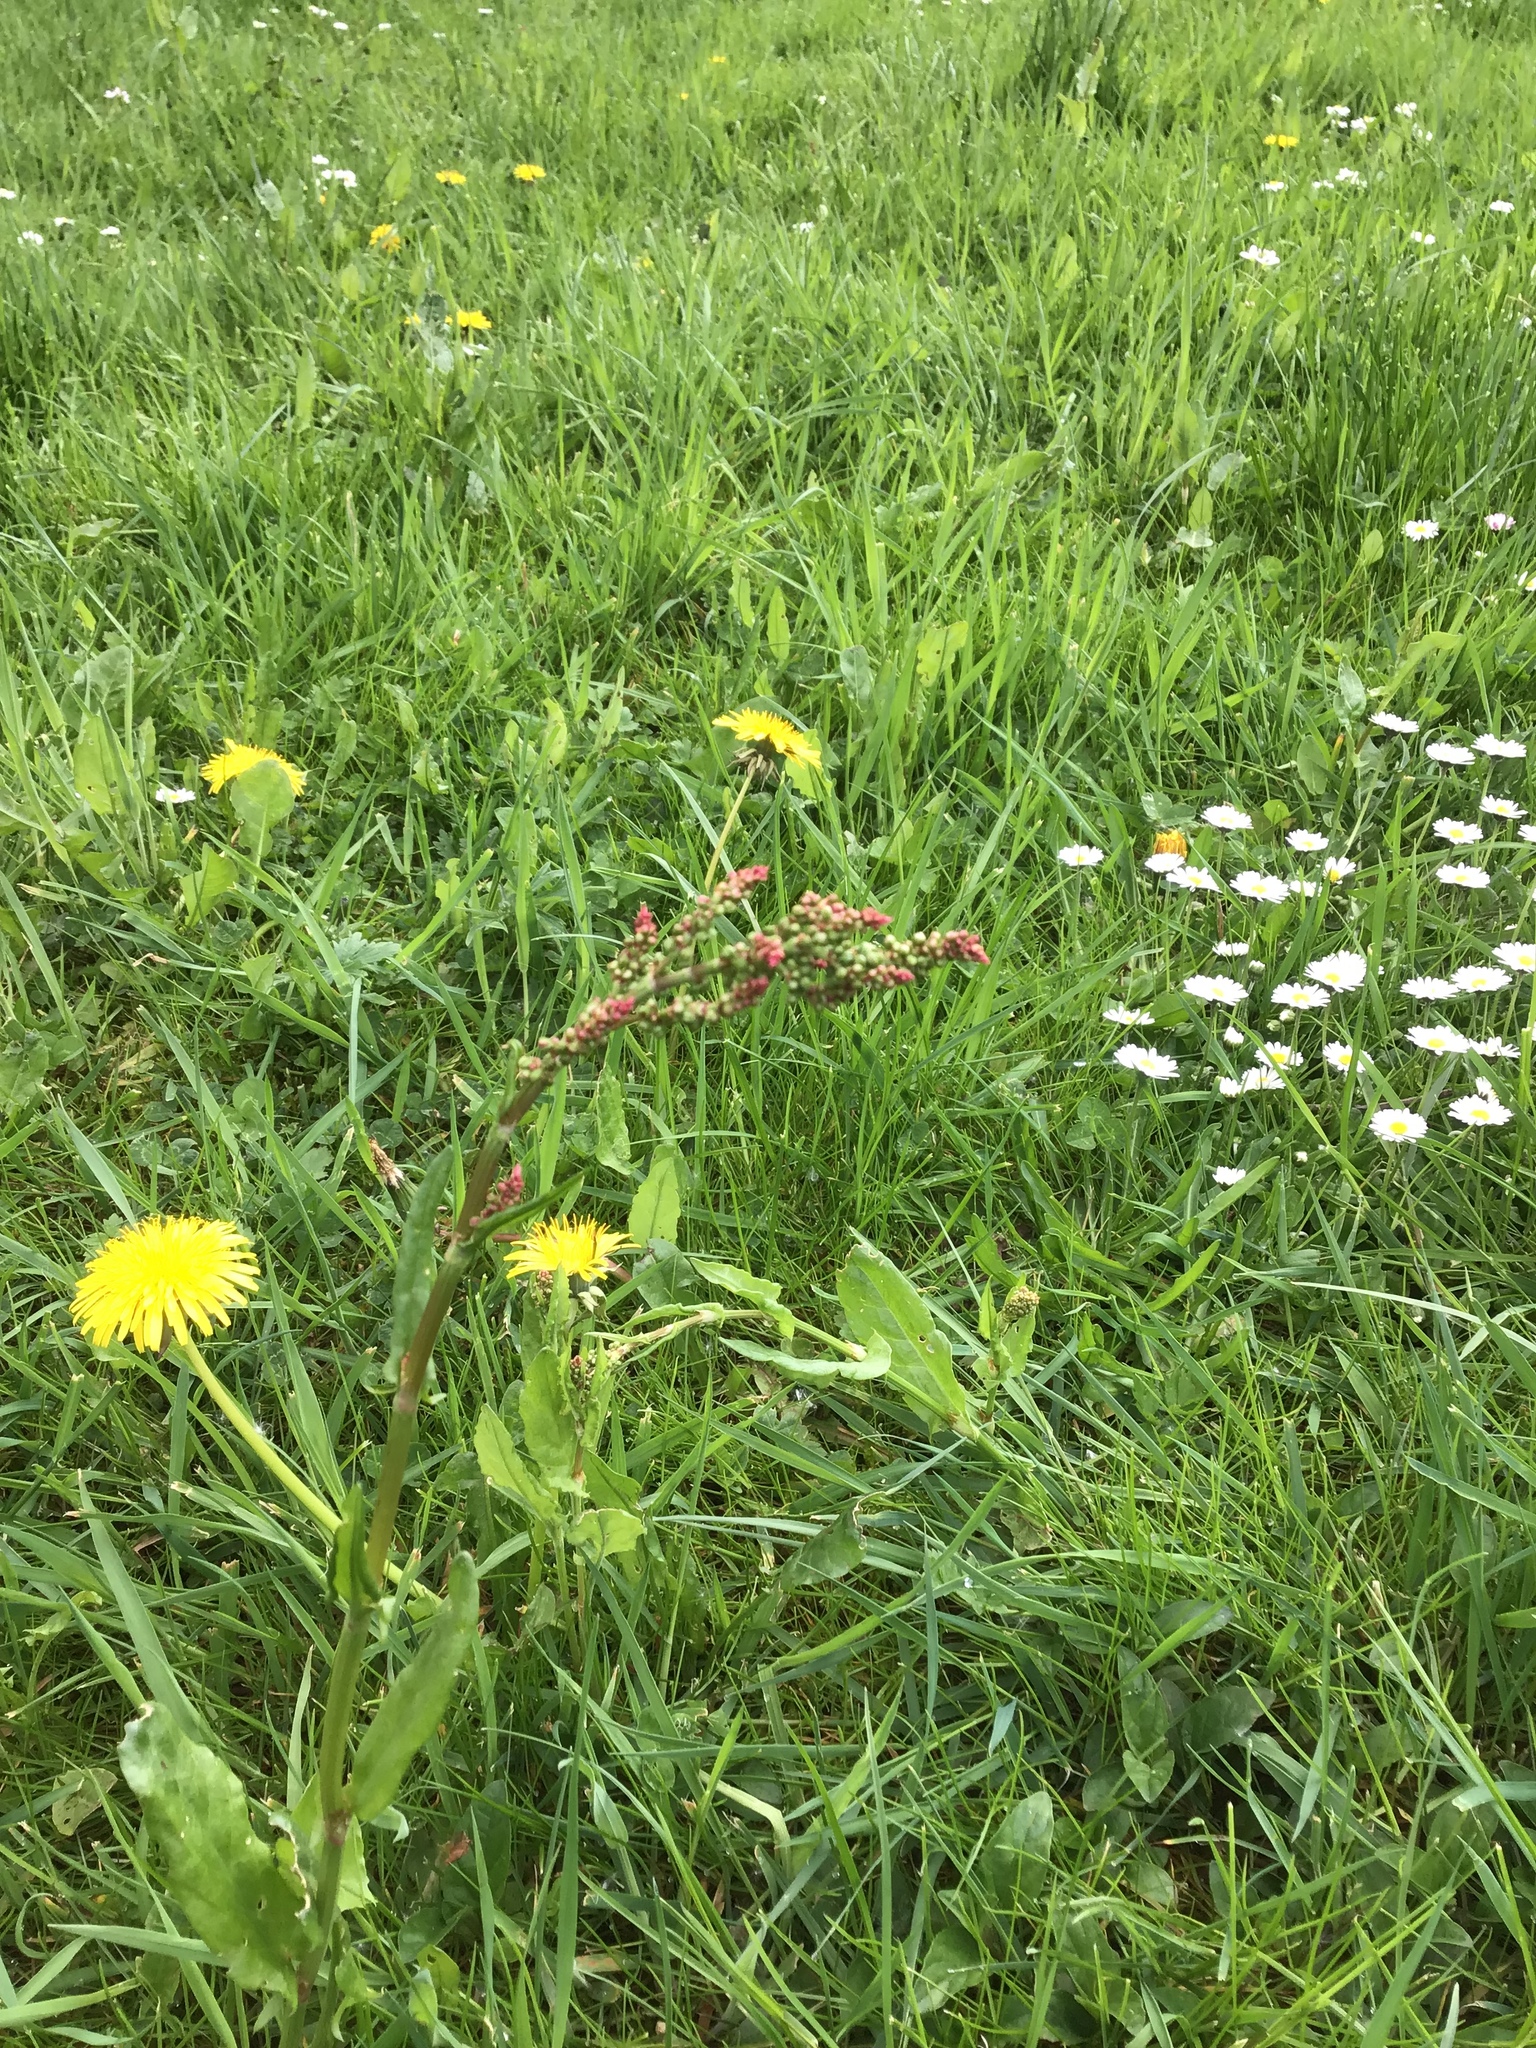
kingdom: Plantae
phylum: Tracheophyta
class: Magnoliopsida
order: Caryophyllales
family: Polygonaceae
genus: Rumex
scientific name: Rumex acetosa
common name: Garden sorrel
